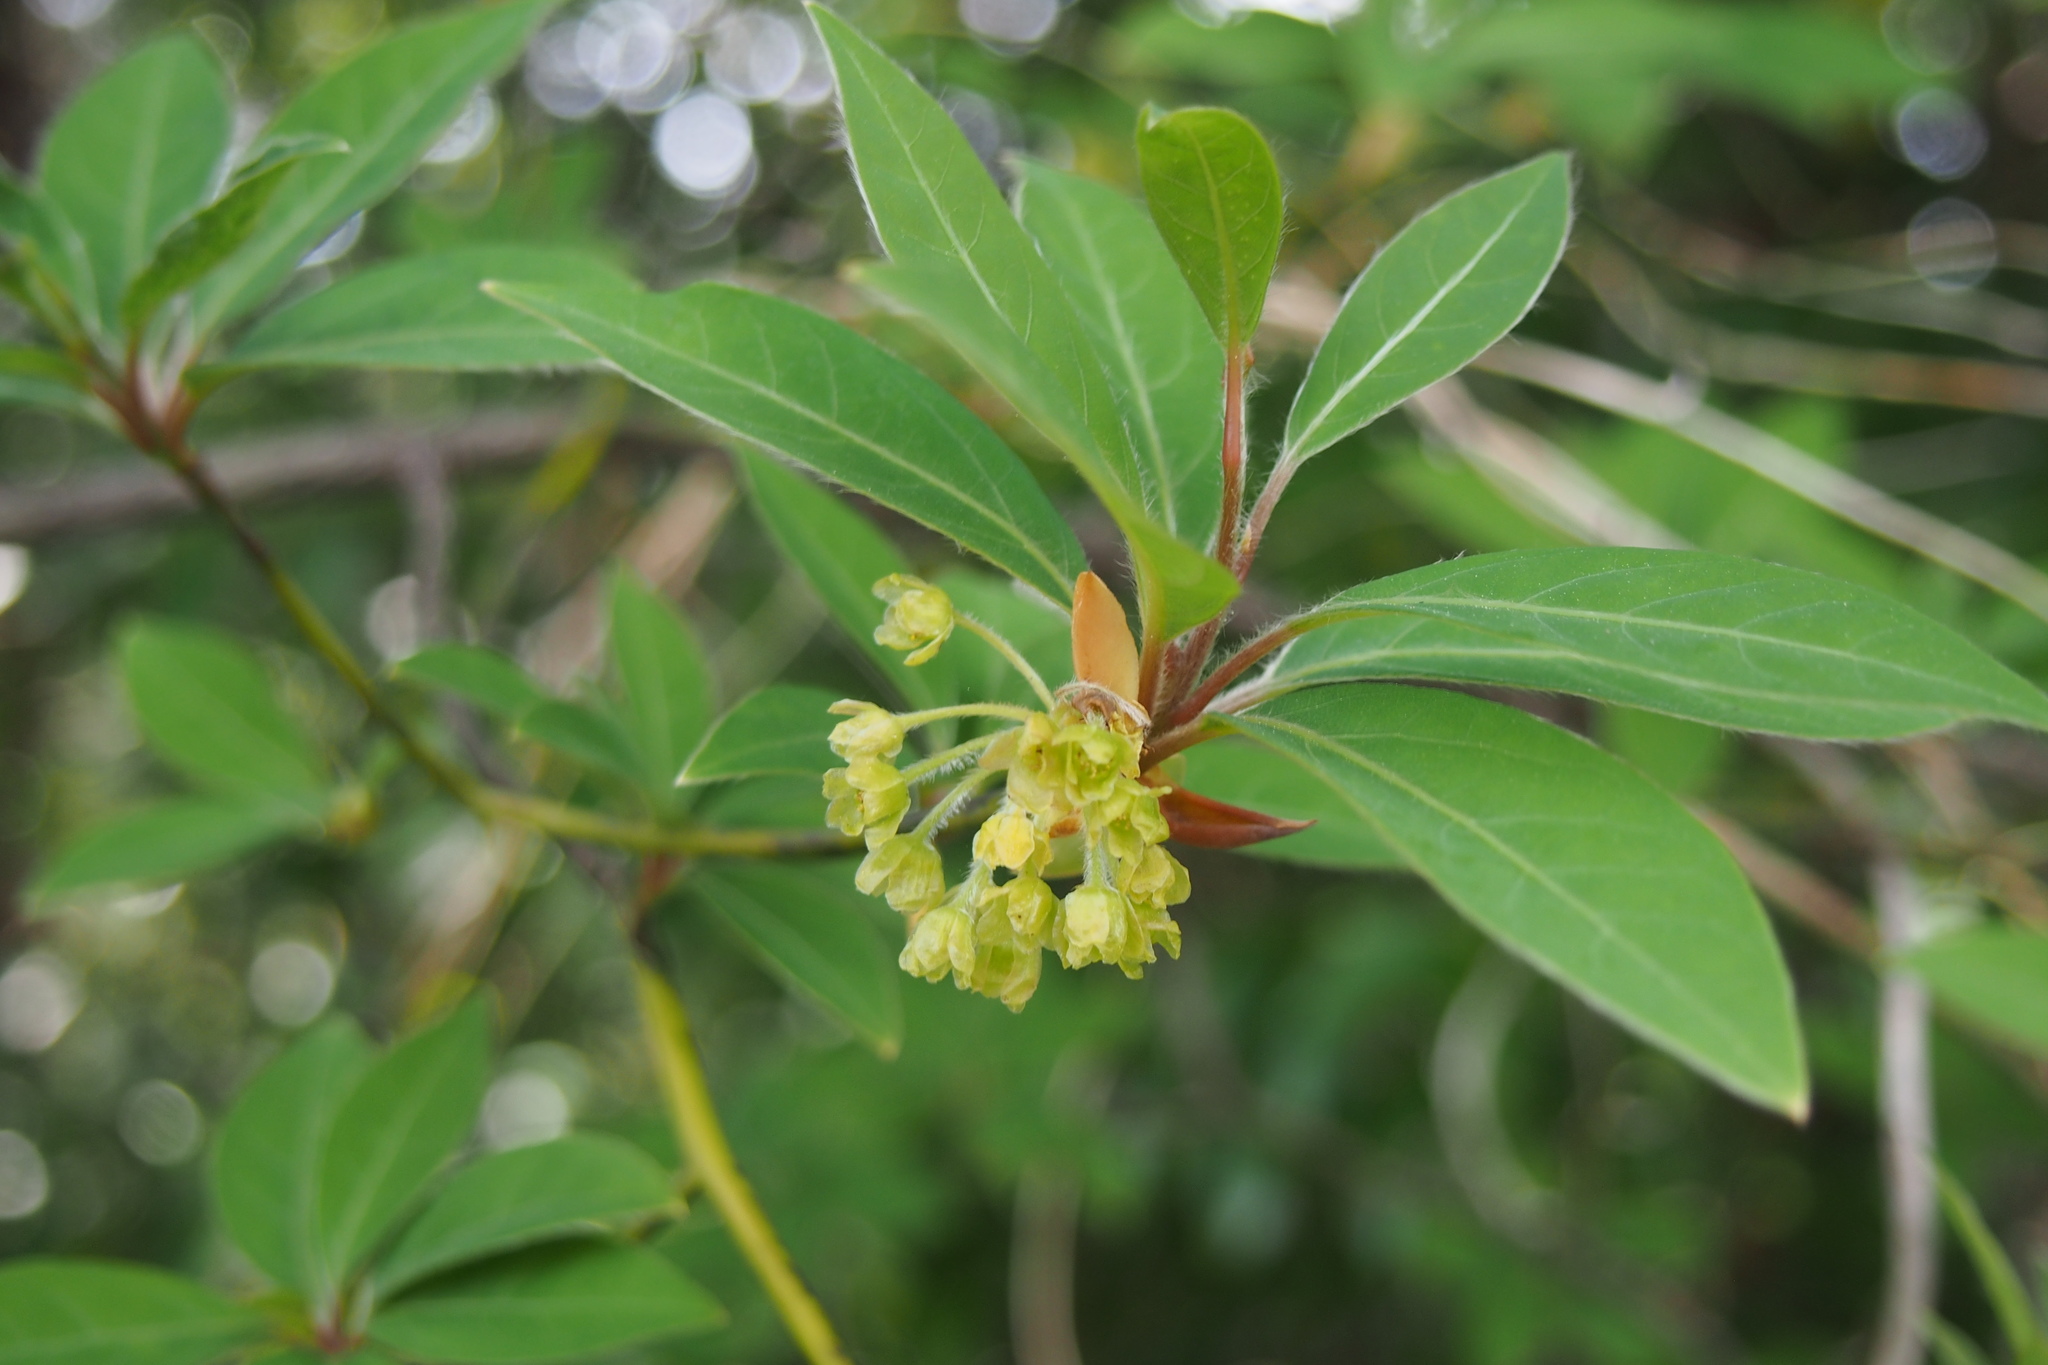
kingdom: Plantae
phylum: Tracheophyta
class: Magnoliopsida
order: Laurales
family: Lauraceae
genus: Lindera
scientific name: Lindera umbellata
